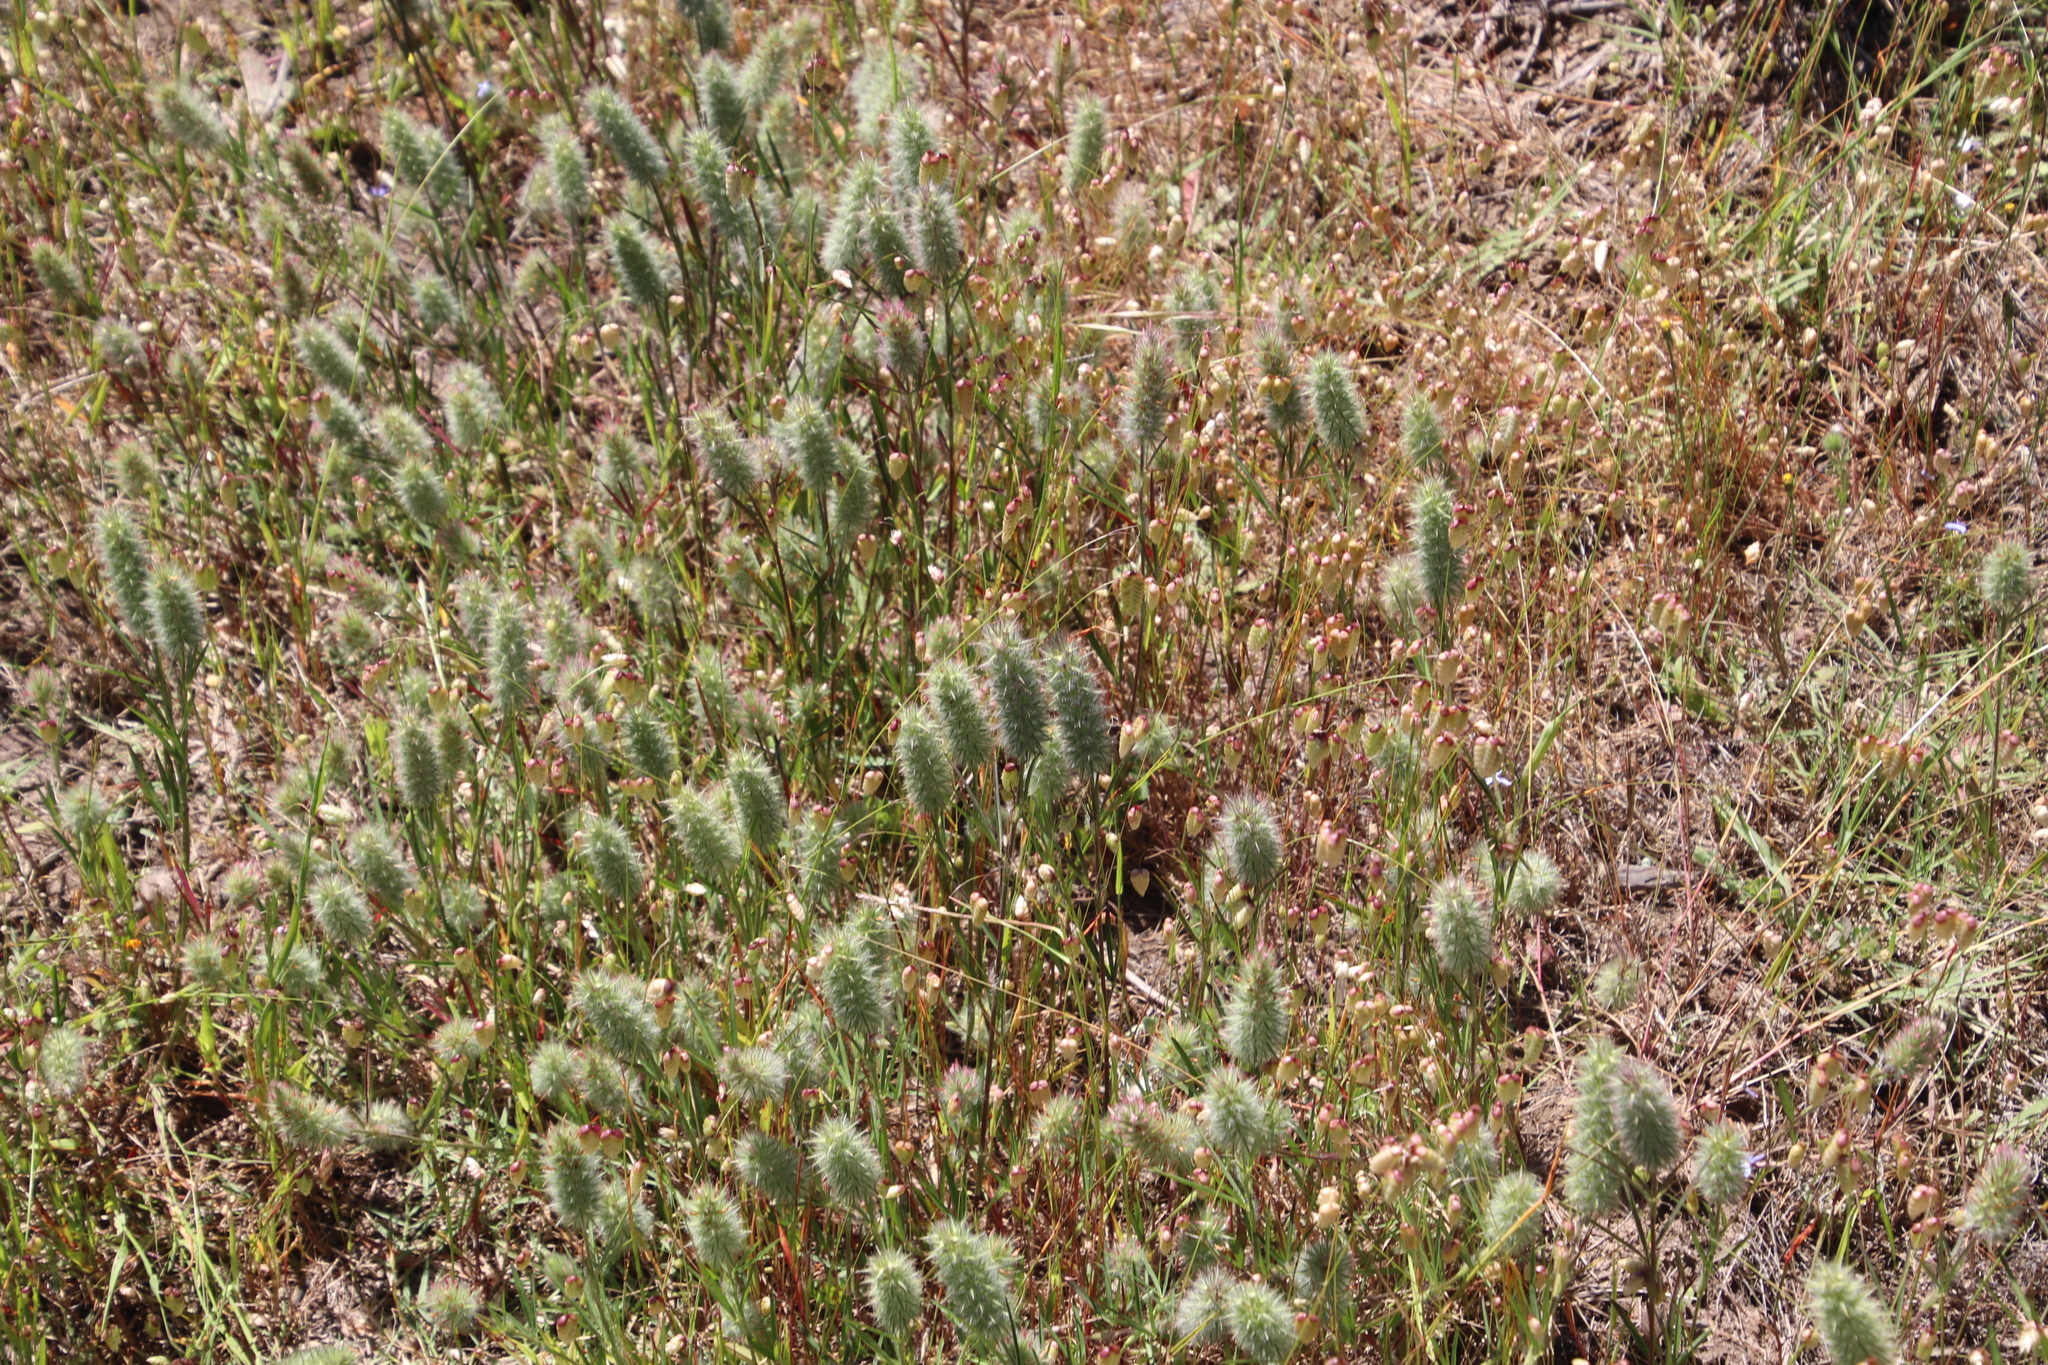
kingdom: Plantae
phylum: Tracheophyta
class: Magnoliopsida
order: Fabales
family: Fabaceae
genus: Trifolium
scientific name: Trifolium angustifolium
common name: Narrow clover
